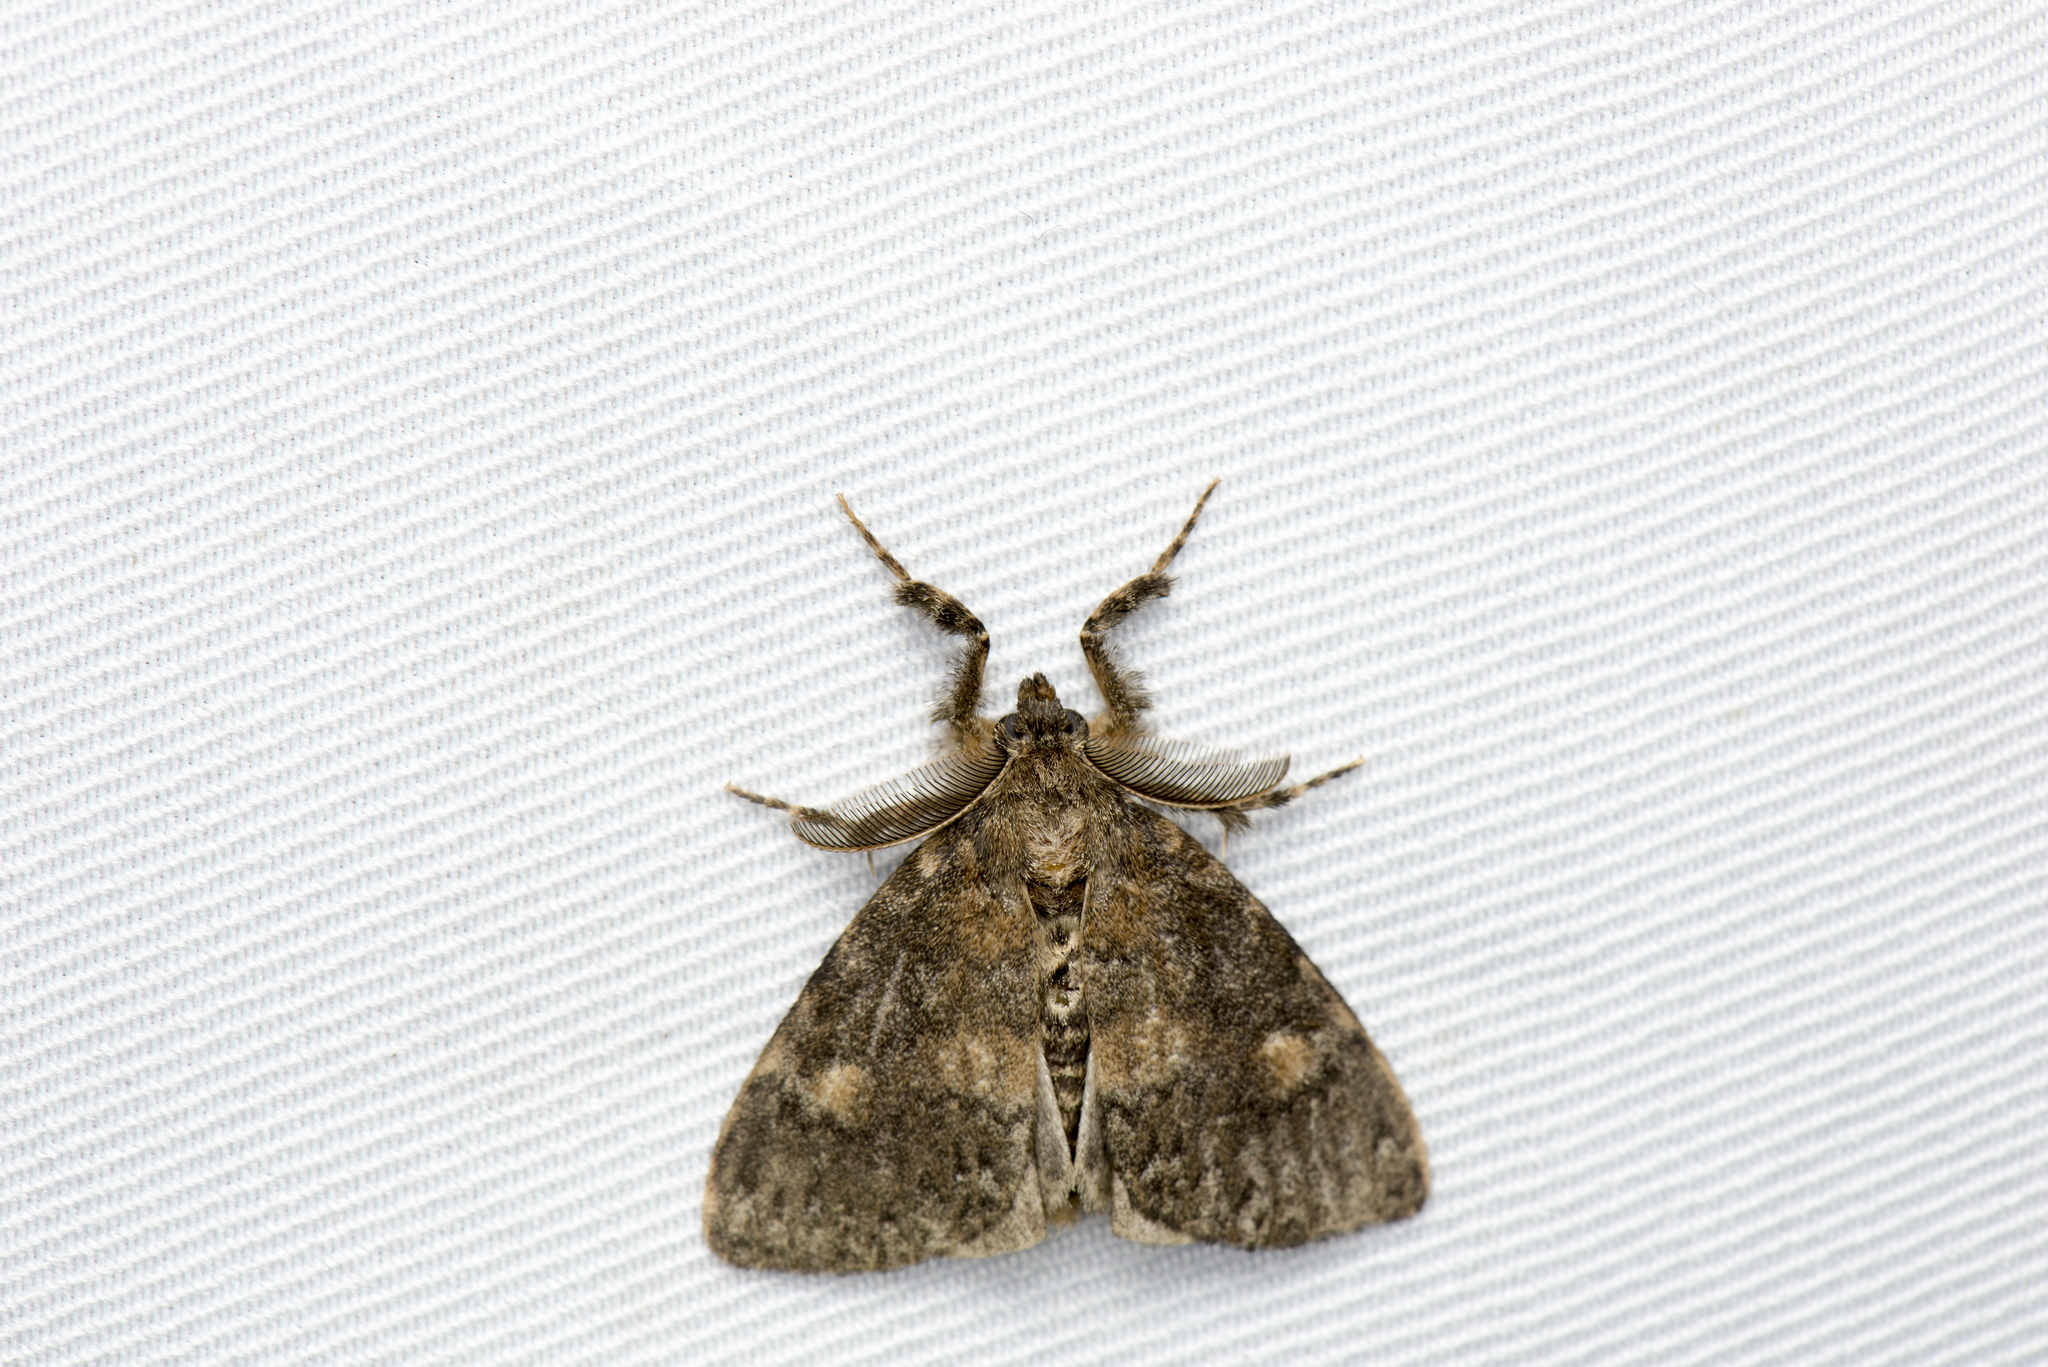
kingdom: Animalia
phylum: Arthropoda
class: Insecta
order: Lepidoptera
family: Erebidae
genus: Ilema
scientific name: Ilema kosemponica
